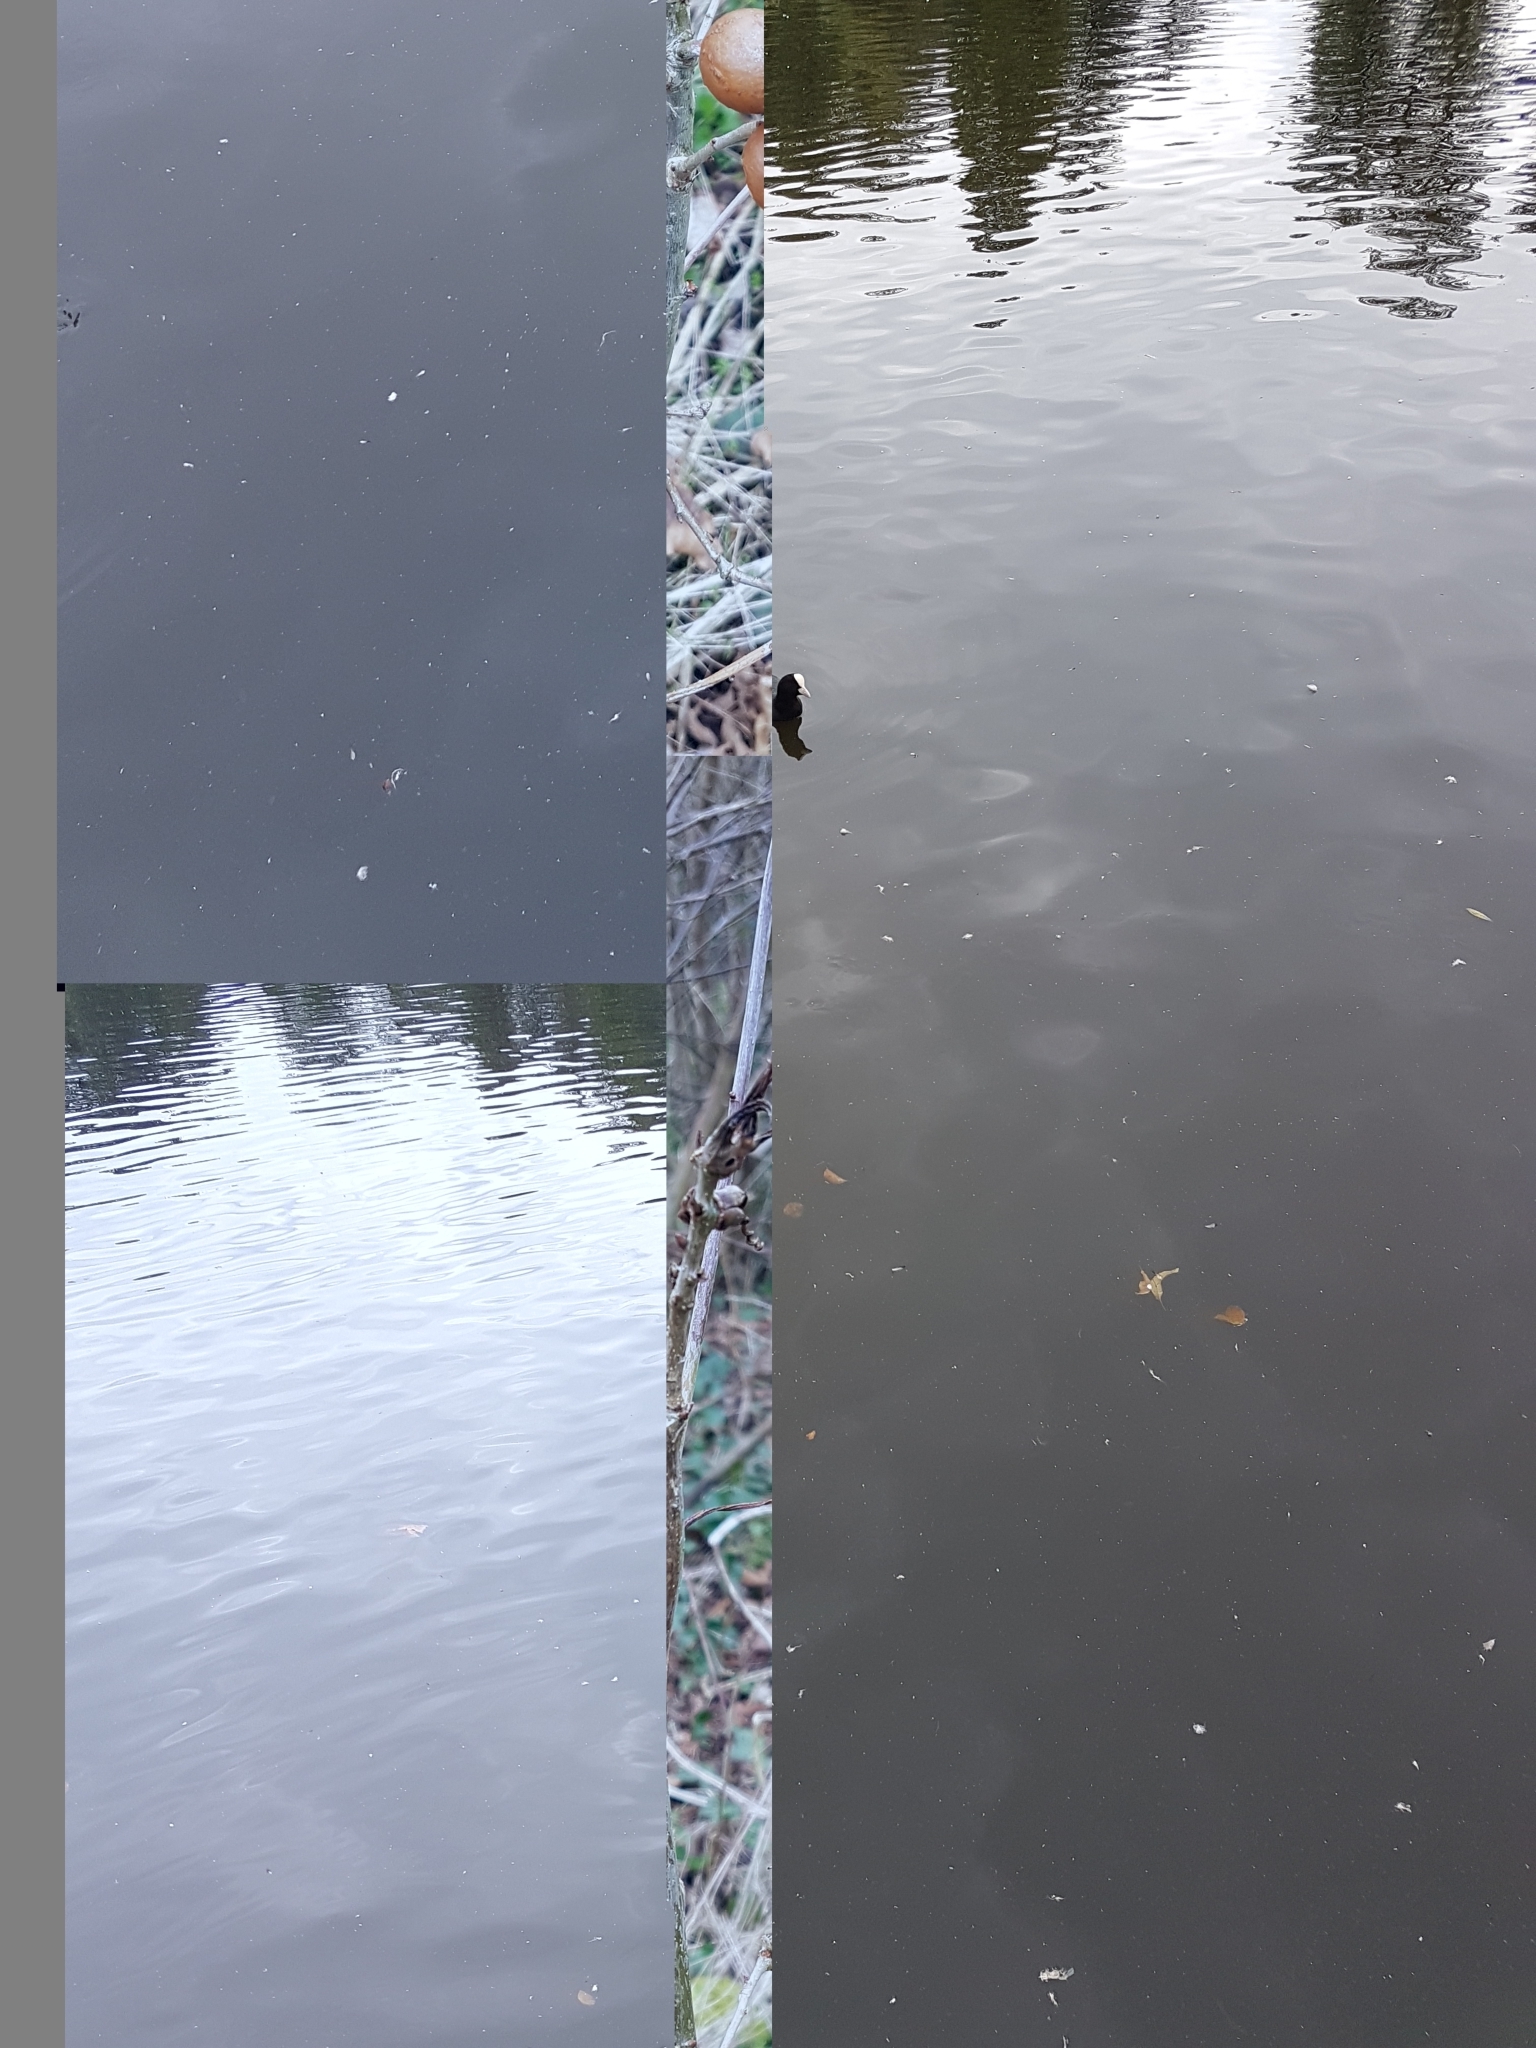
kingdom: Animalia
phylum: Chordata
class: Aves
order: Gruiformes
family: Rallidae
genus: Fulica
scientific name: Fulica atra
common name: Eurasian coot
